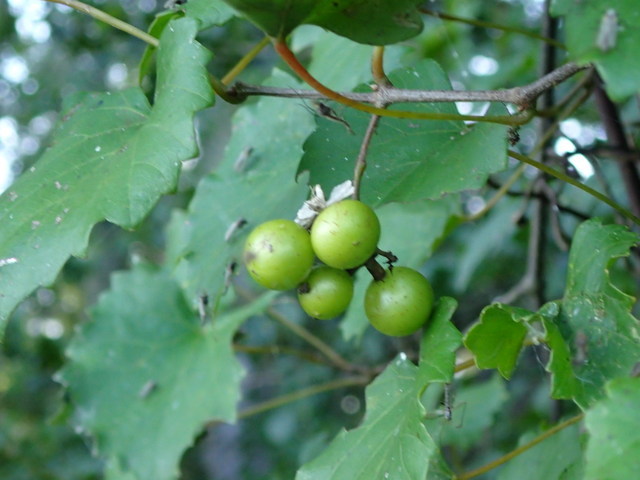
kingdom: Plantae
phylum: Tracheophyta
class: Magnoliopsida
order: Vitales
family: Vitaceae
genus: Vitis
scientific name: Vitis rotundifolia
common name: Muscadine grape
